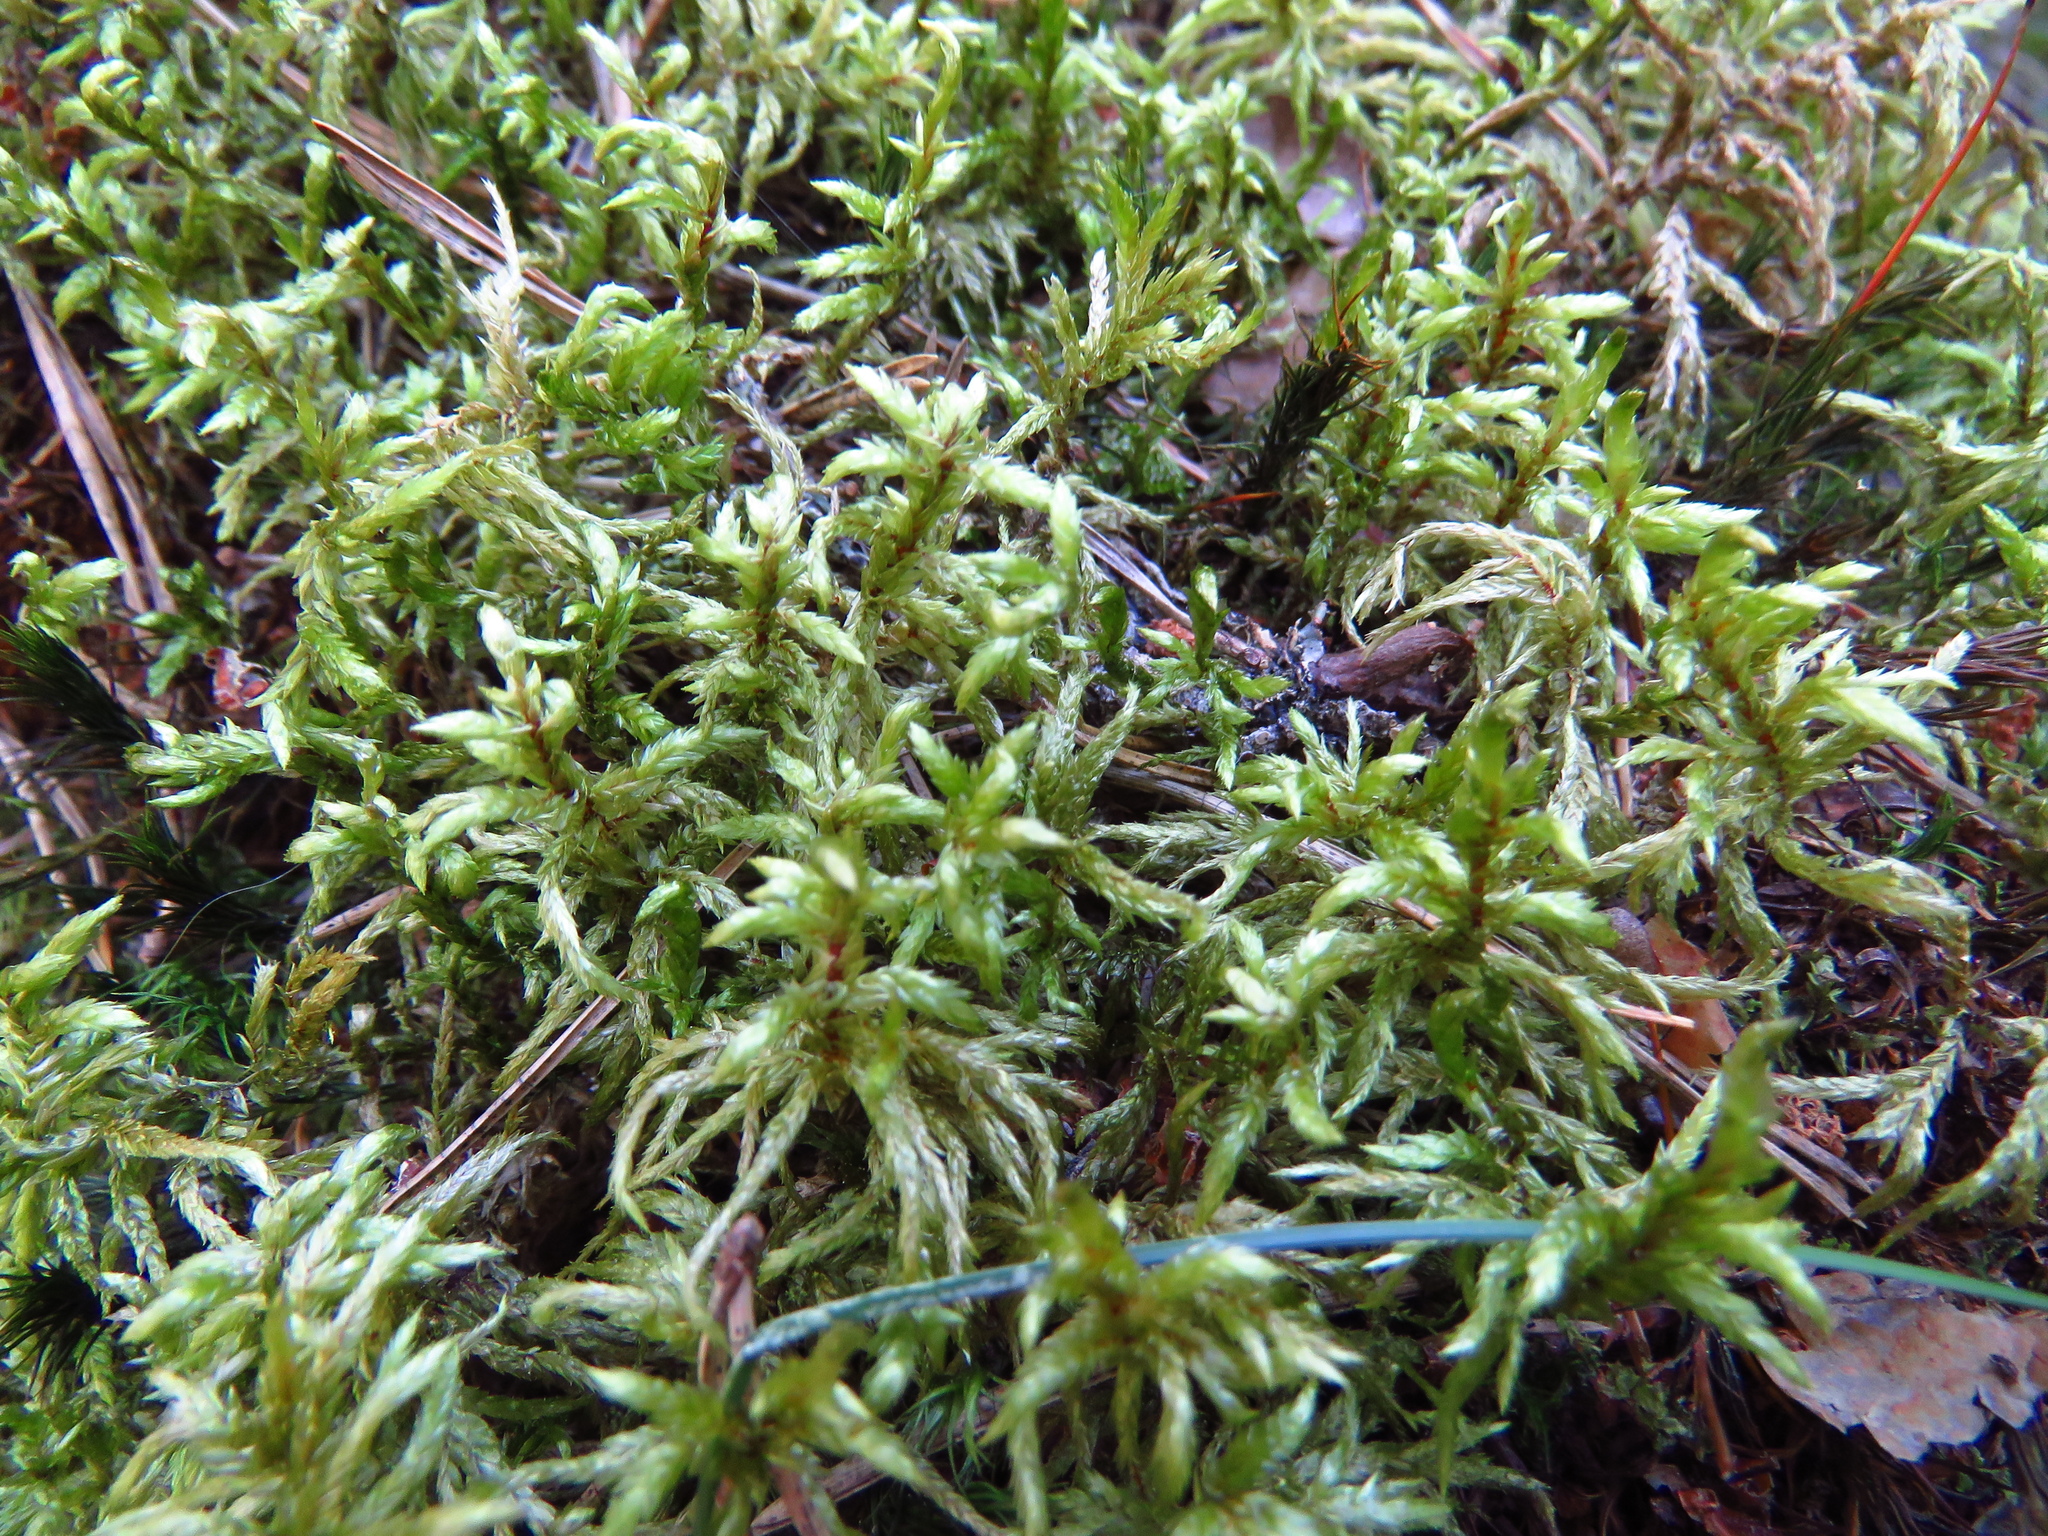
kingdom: Plantae
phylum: Bryophyta
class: Bryopsida
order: Hypnales
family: Hylocomiaceae
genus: Pleurozium
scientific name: Pleurozium schreberi
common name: Red-stemmed feather moss
